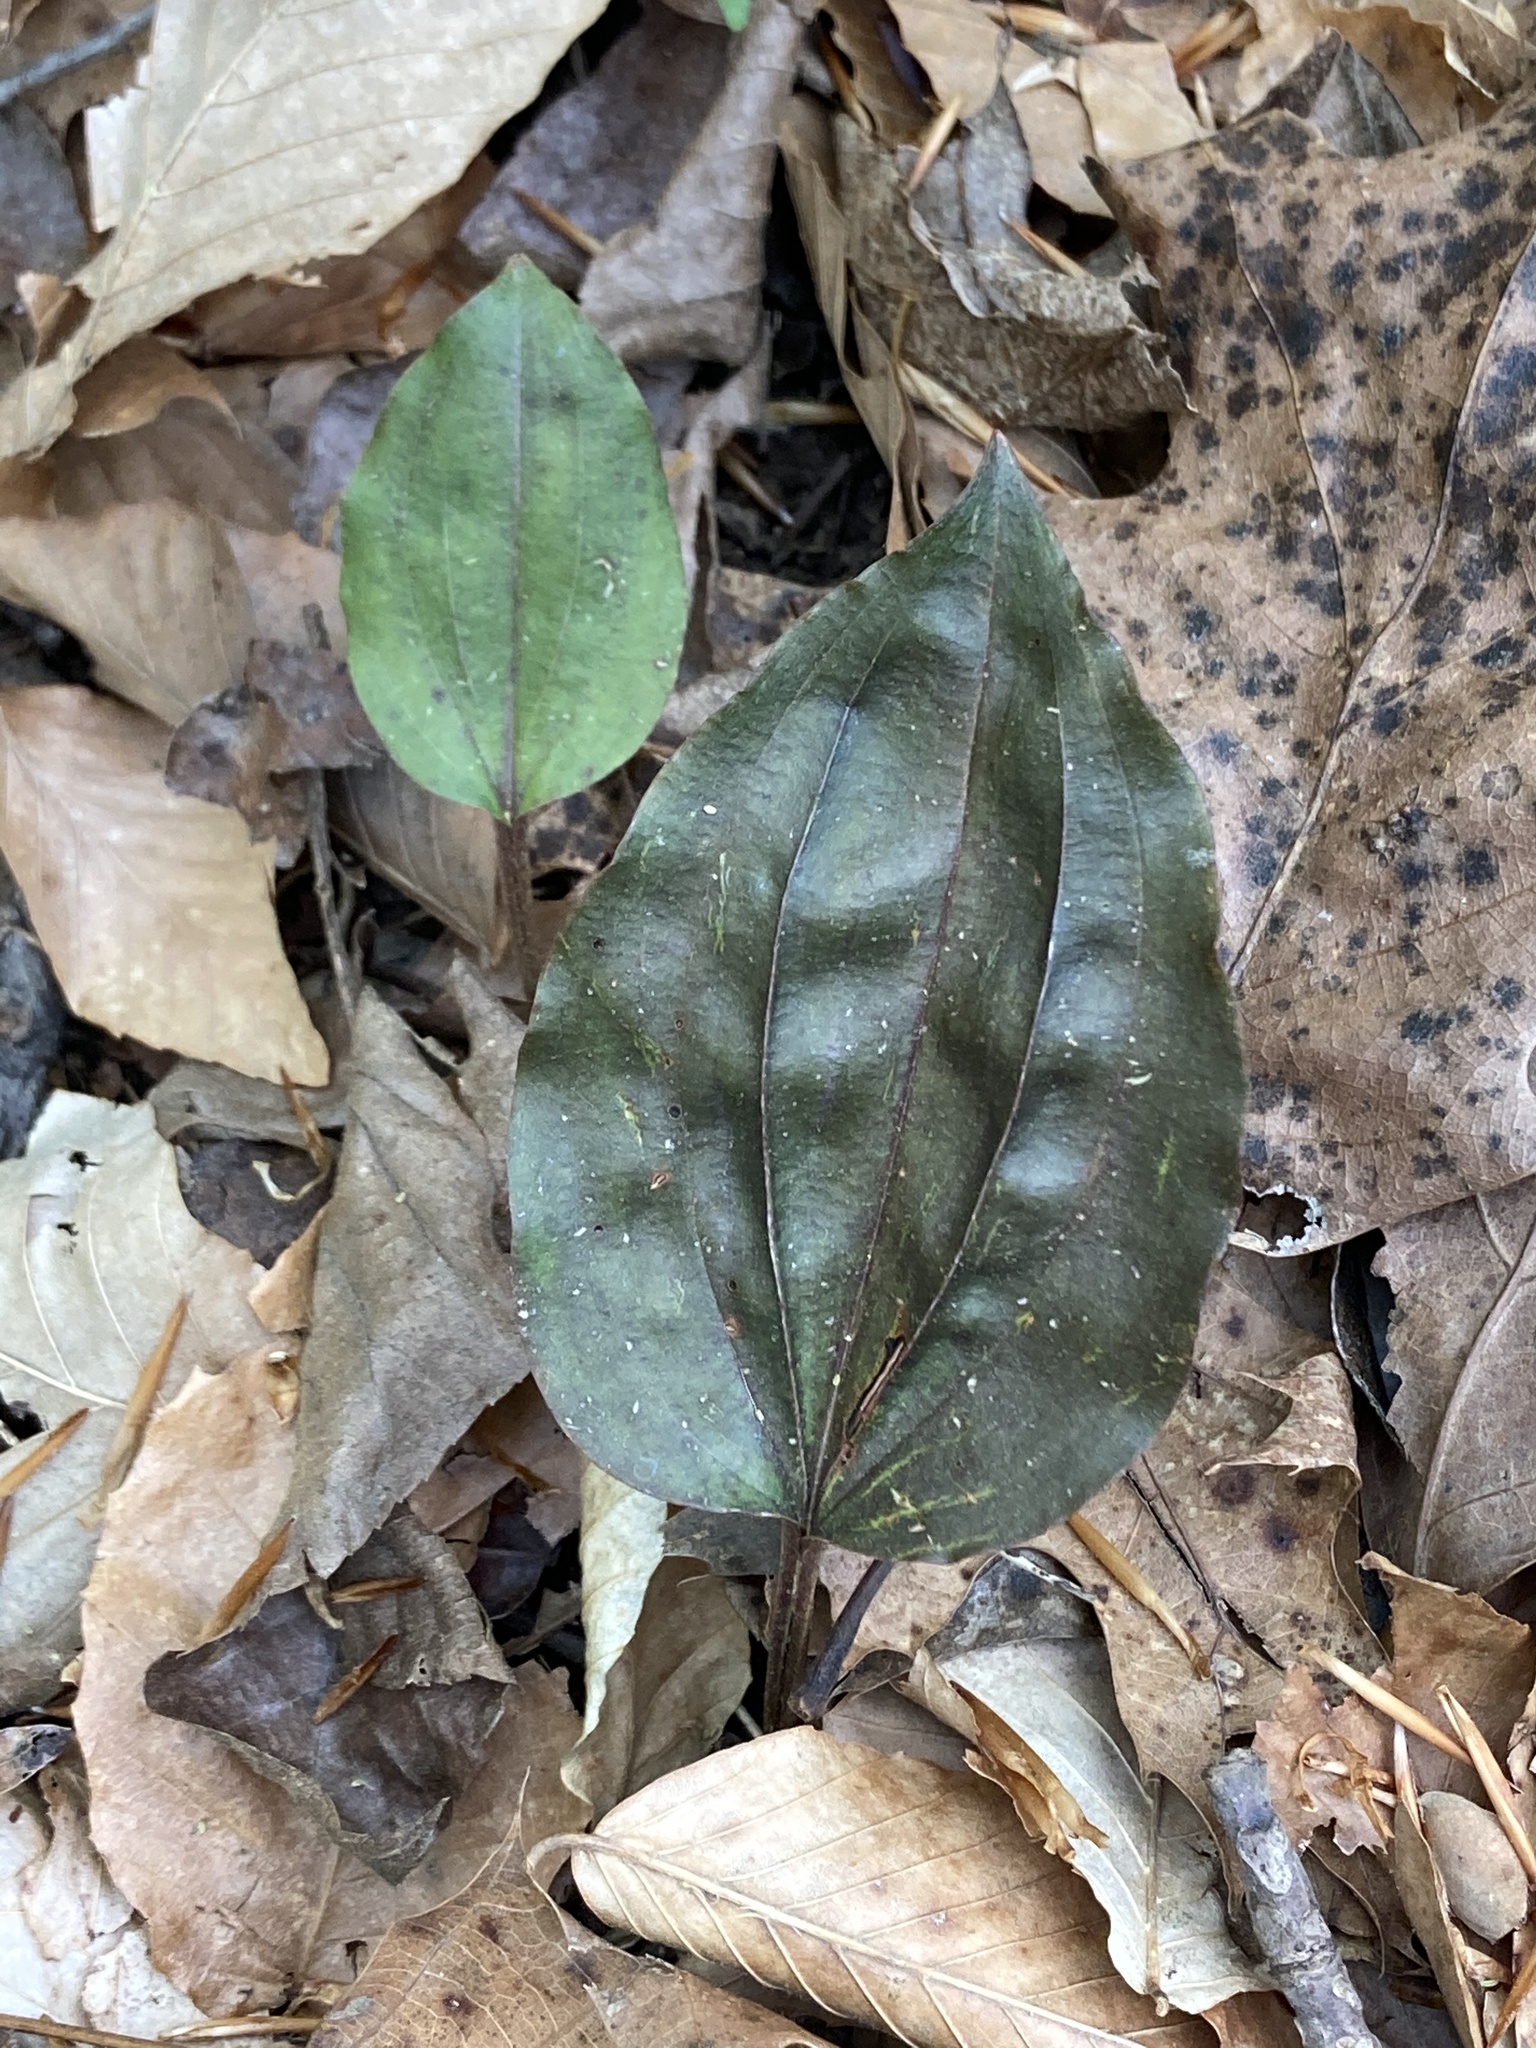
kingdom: Plantae
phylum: Tracheophyta
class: Liliopsida
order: Asparagales
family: Orchidaceae
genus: Tipularia
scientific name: Tipularia discolor
